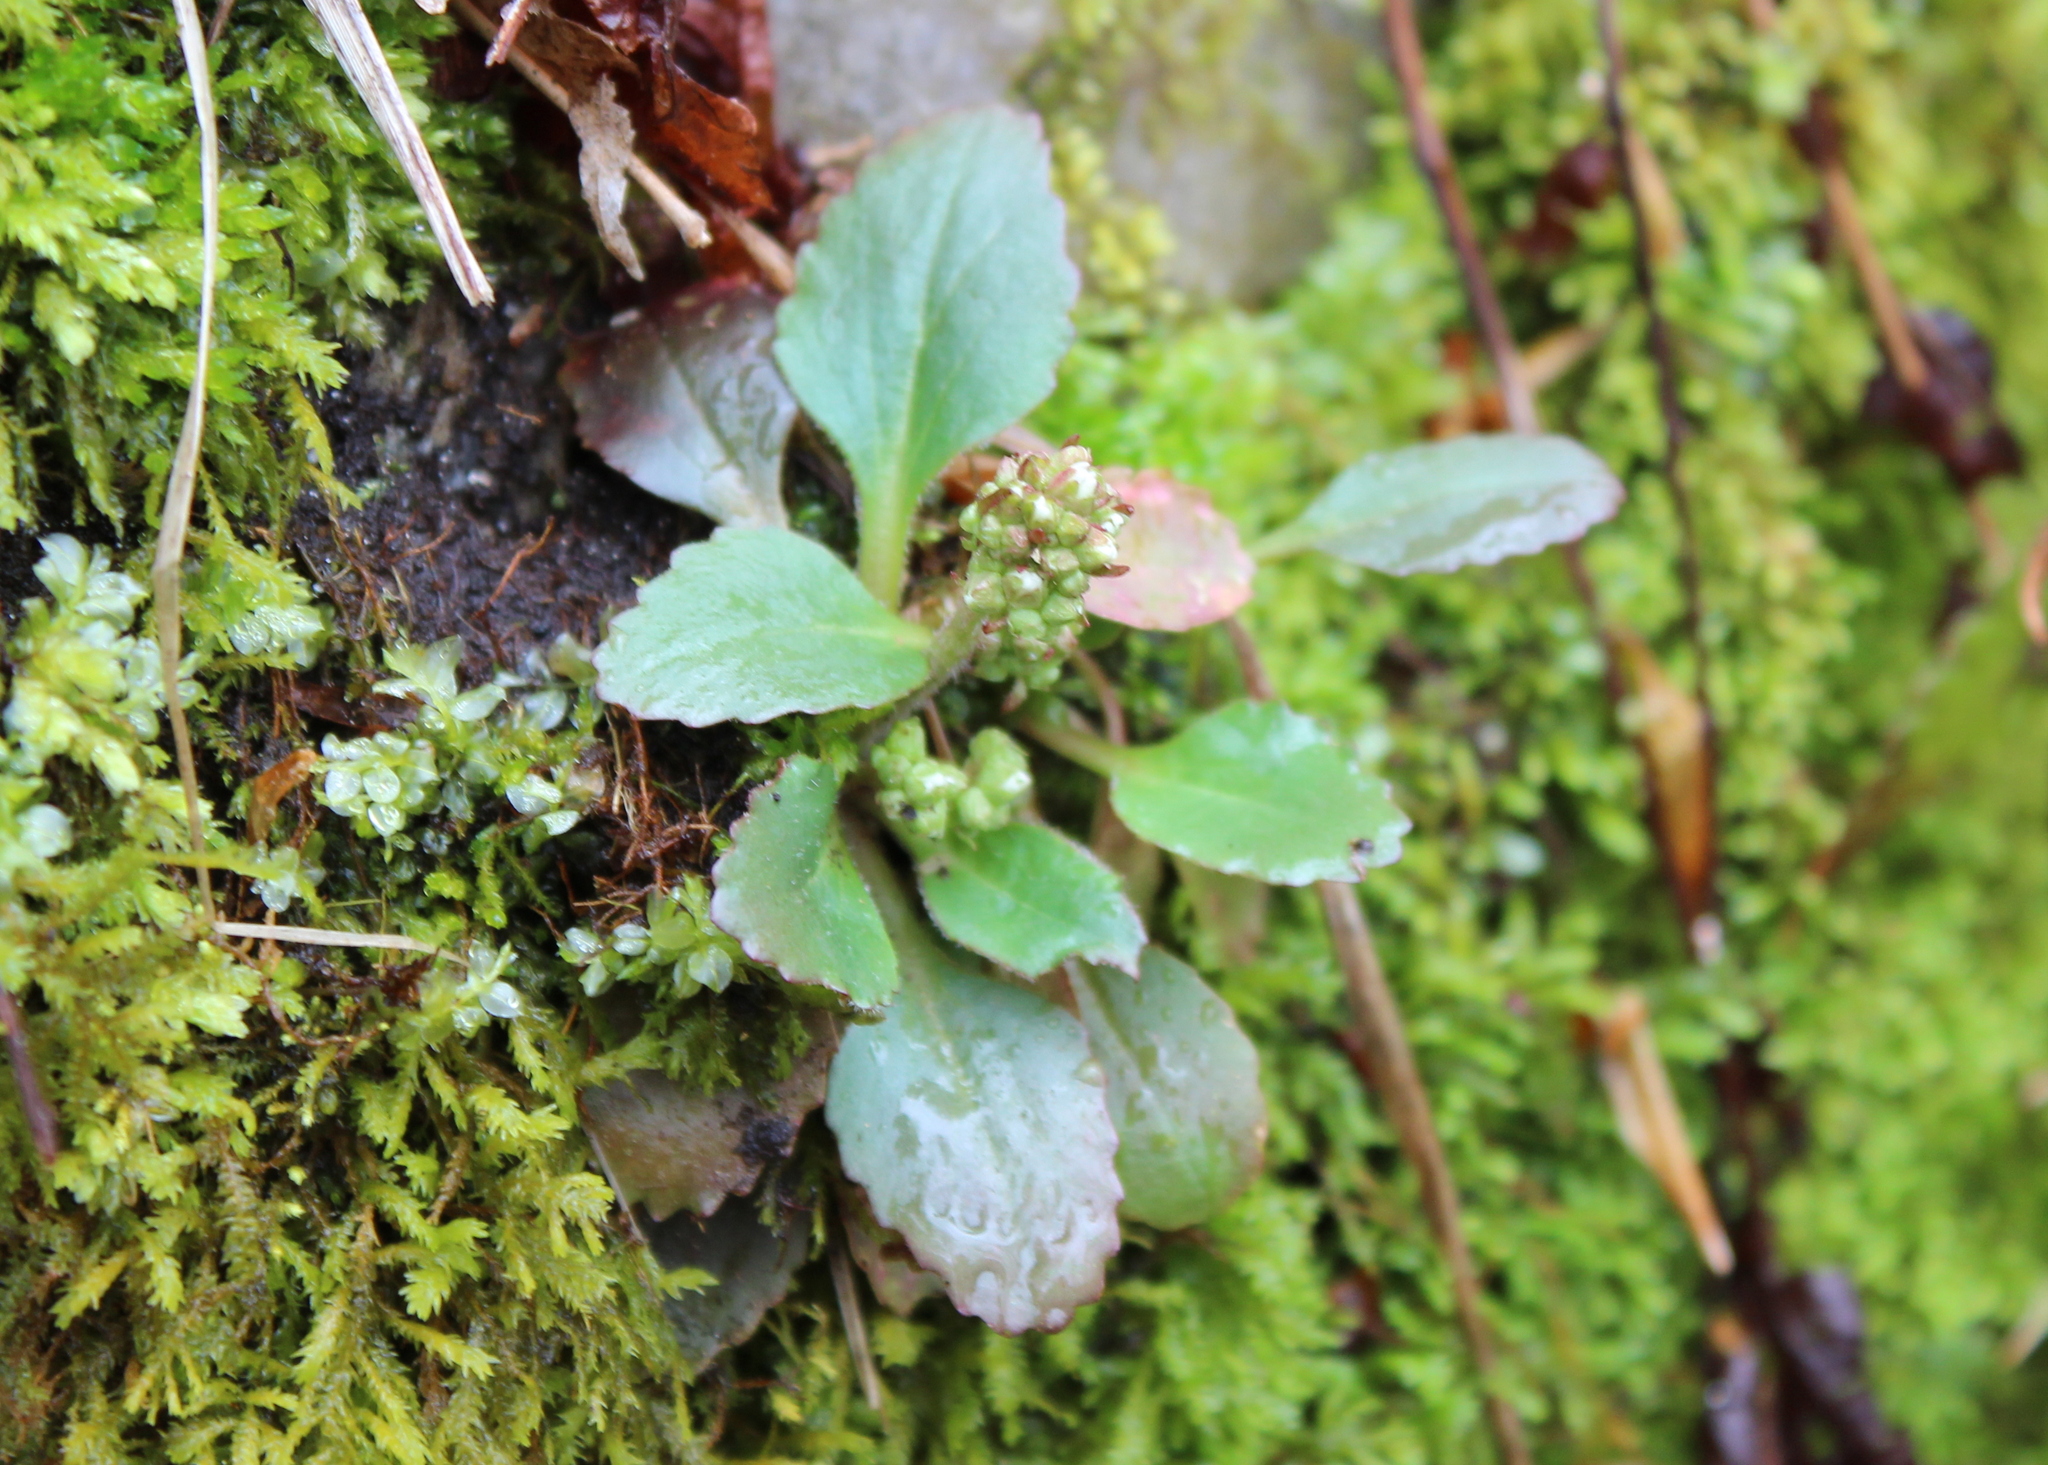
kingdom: Plantae
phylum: Tracheophyta
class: Magnoliopsida
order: Saxifragales
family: Saxifragaceae
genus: Micranthes
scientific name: Micranthes virginiensis
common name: Early saxifrage
